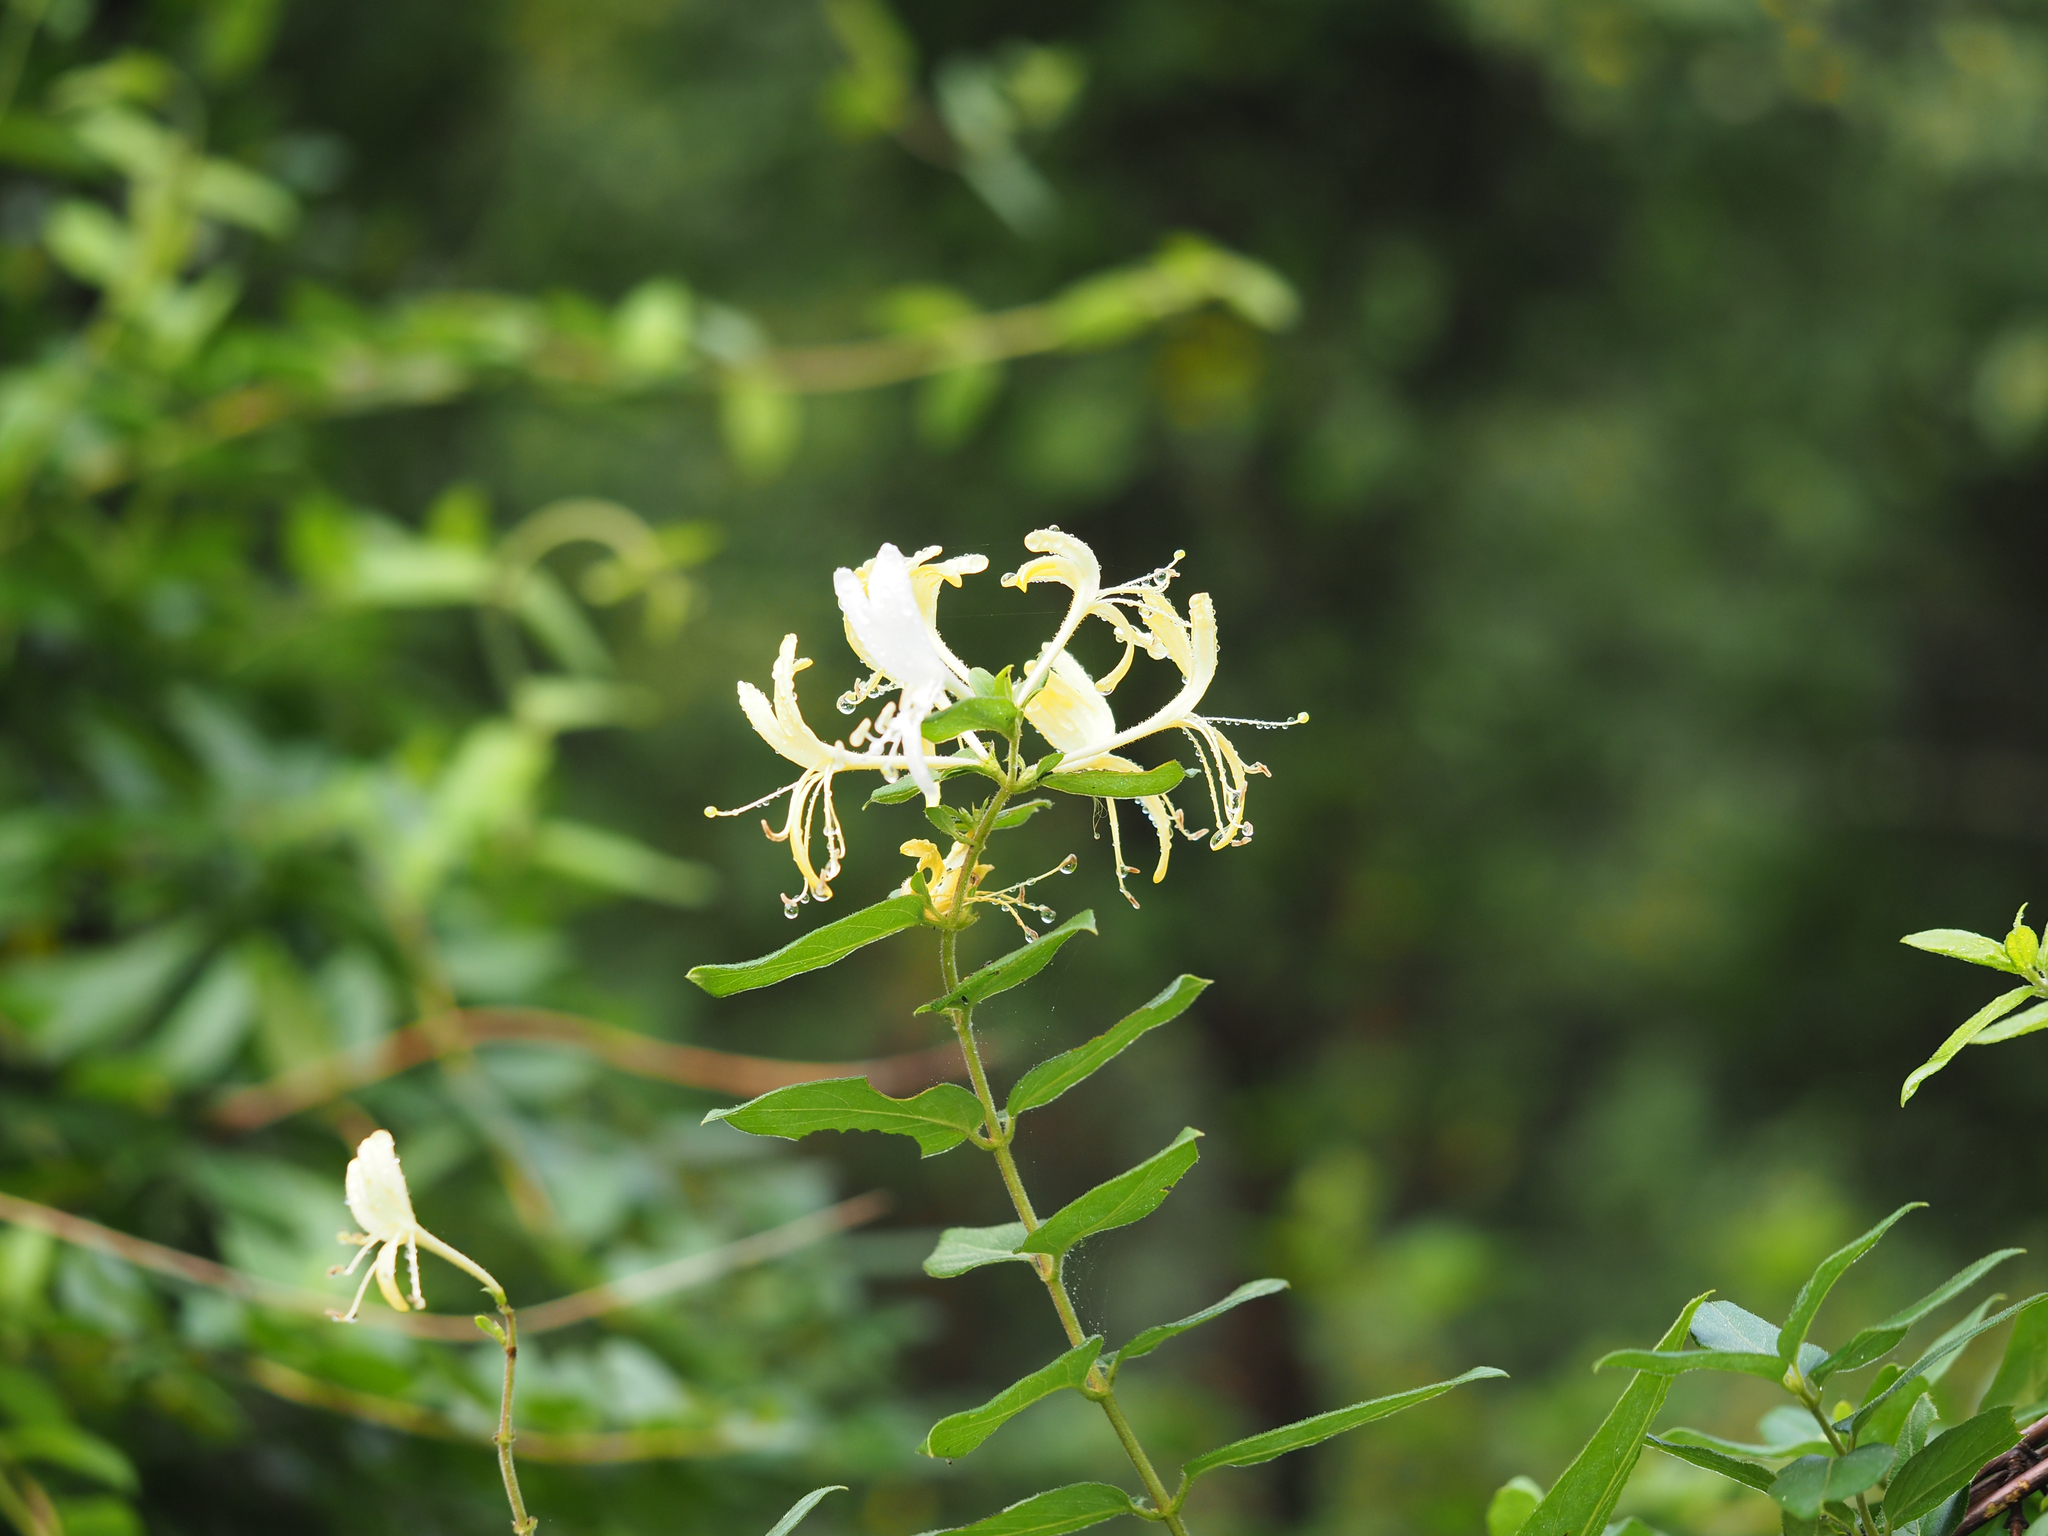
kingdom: Plantae
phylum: Tracheophyta
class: Magnoliopsida
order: Dipsacales
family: Caprifoliaceae
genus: Lonicera
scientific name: Lonicera japonica
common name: Japanese honeysuckle
